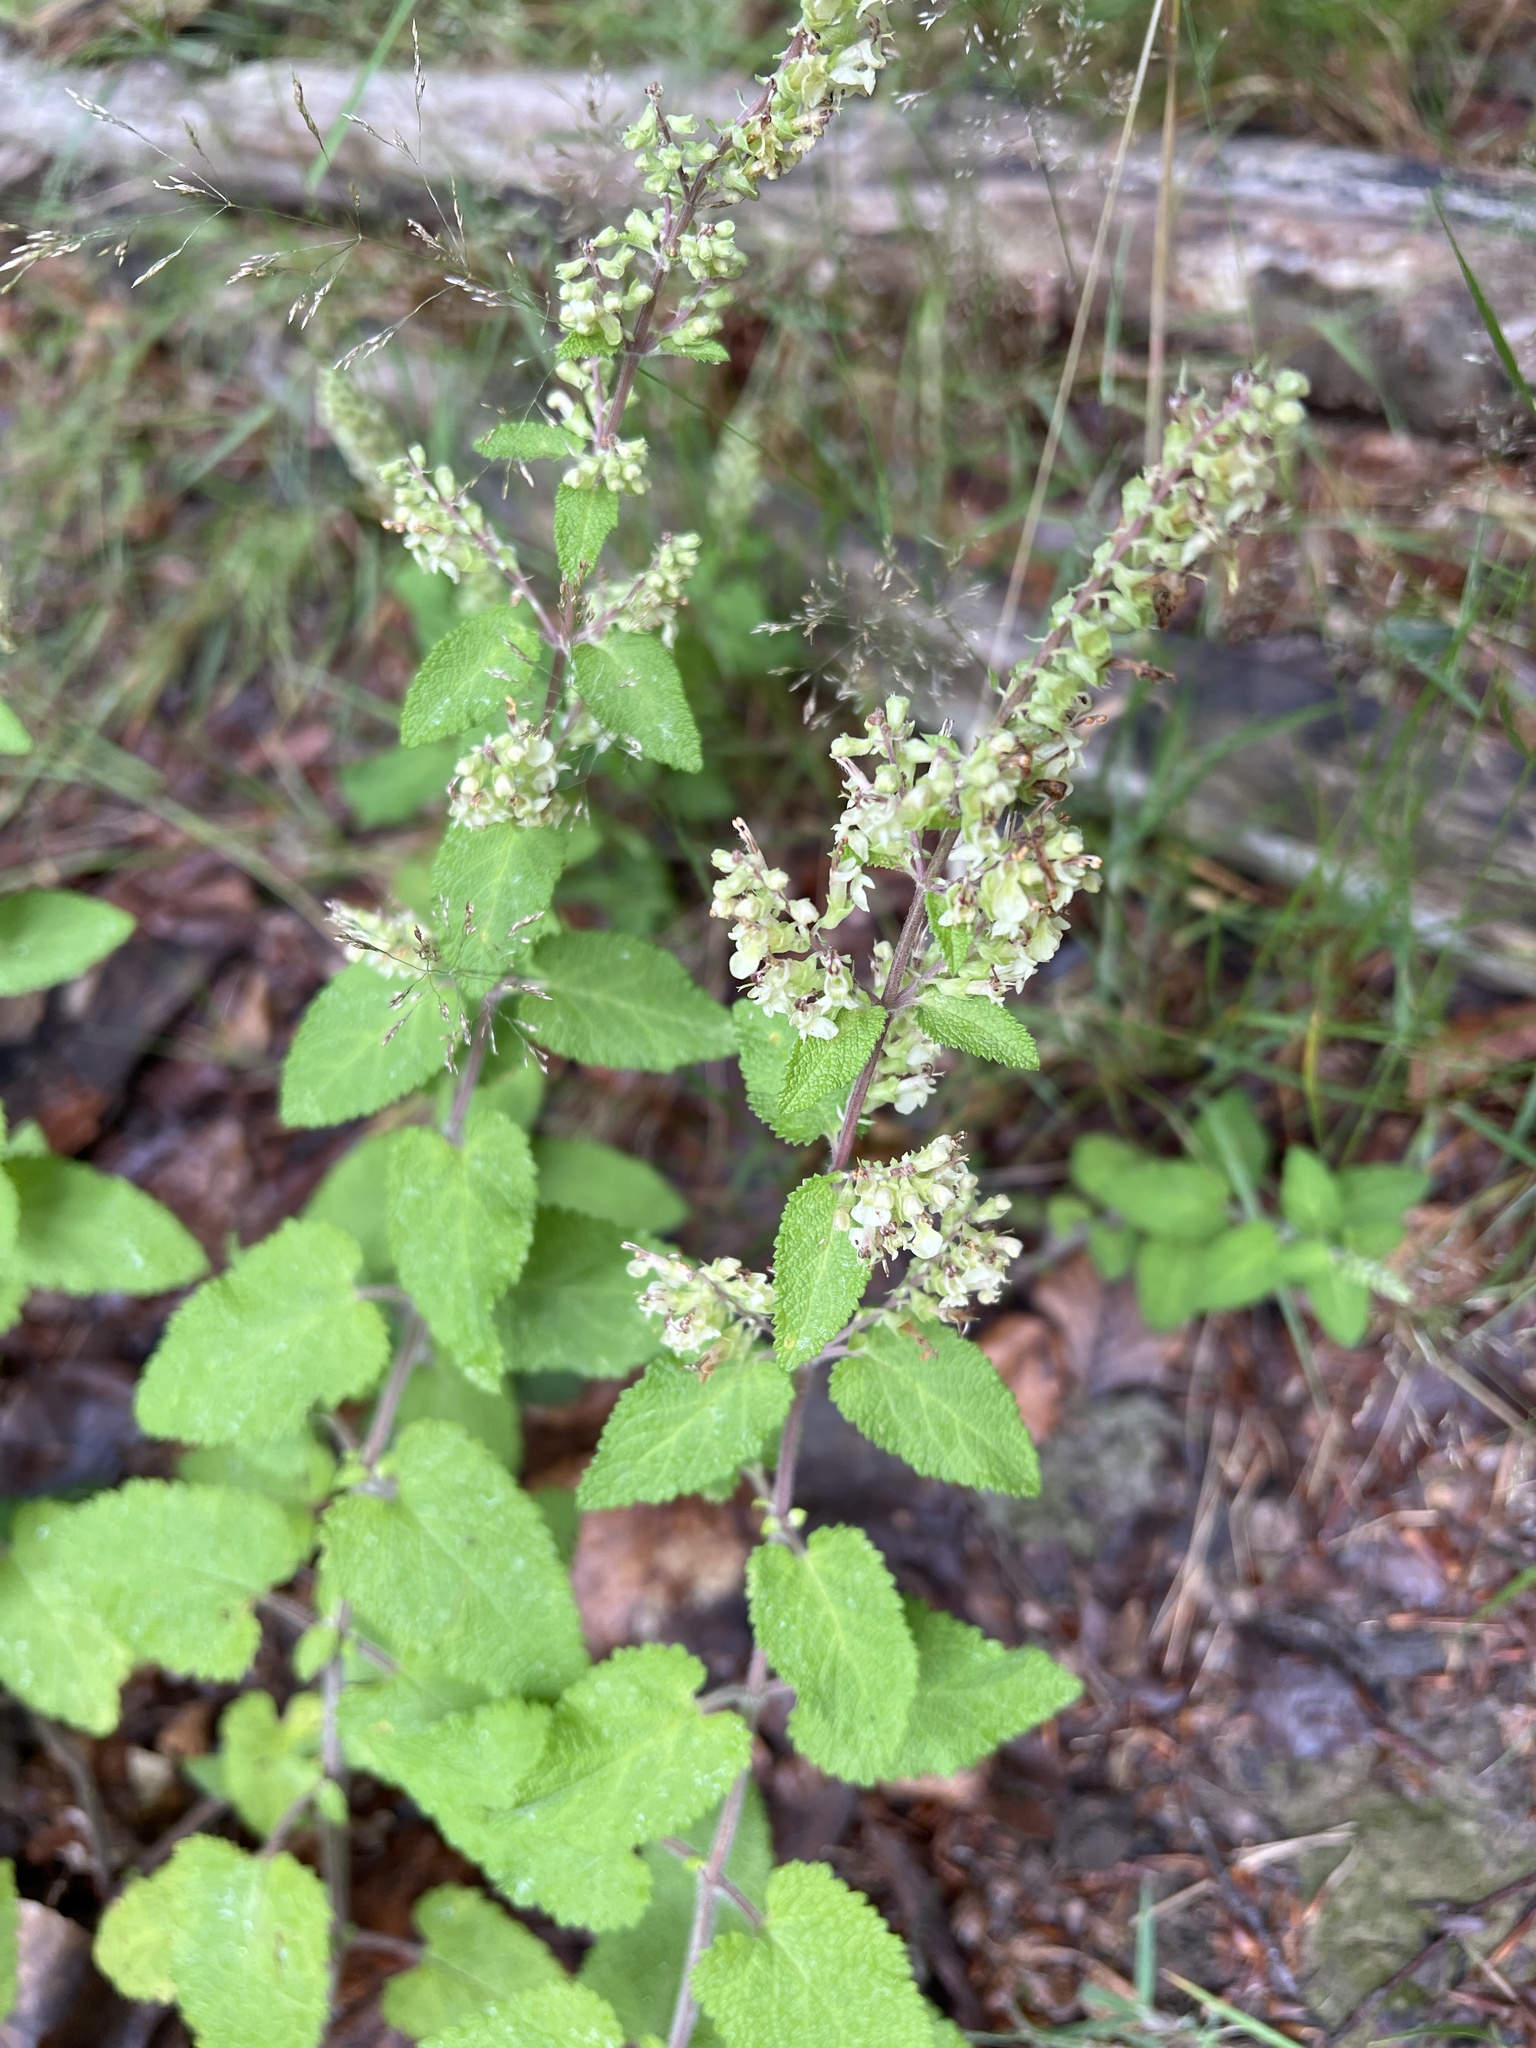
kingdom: Plantae
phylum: Tracheophyta
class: Magnoliopsida
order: Lamiales
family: Lamiaceae
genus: Teucrium
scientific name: Teucrium scorodonia
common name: Woodland germander
